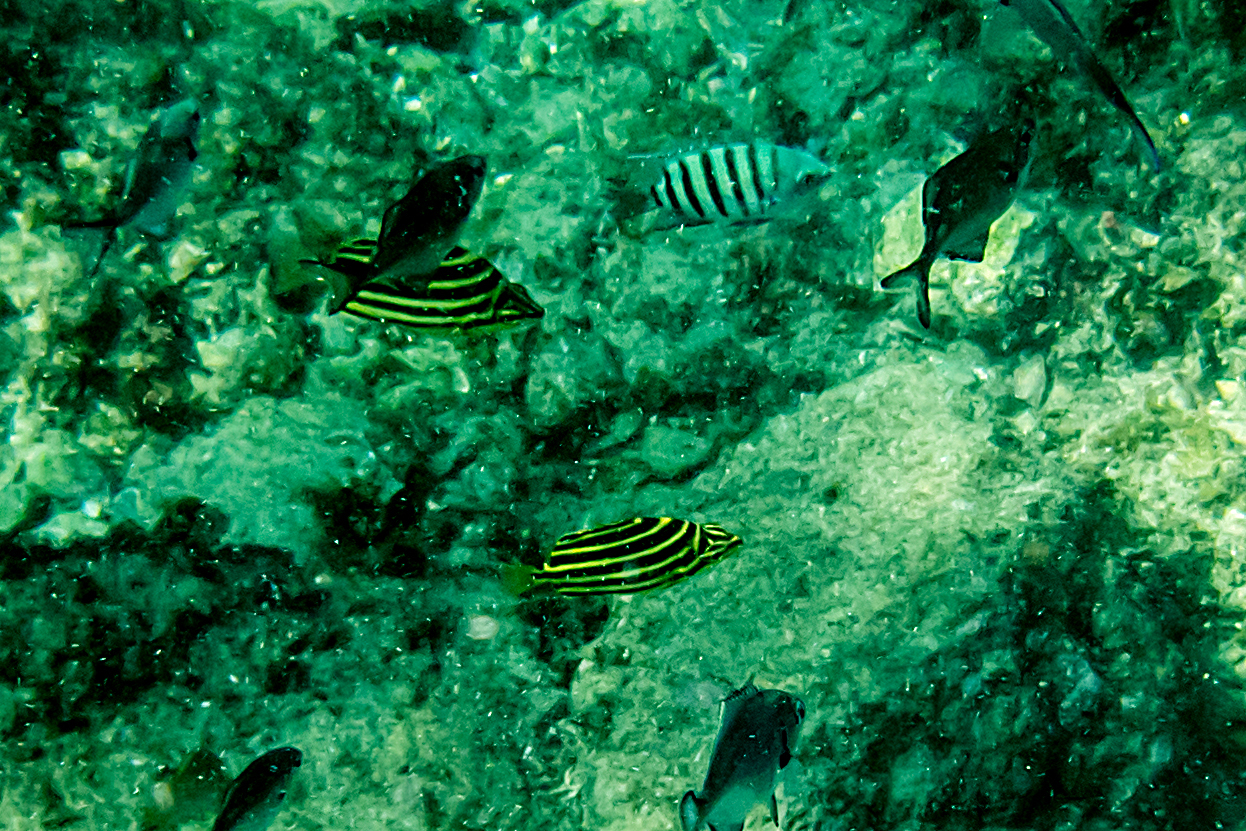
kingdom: Animalia
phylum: Chordata
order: Perciformes
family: Kyphosidae
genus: Microcanthus
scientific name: Microcanthus joyceae
